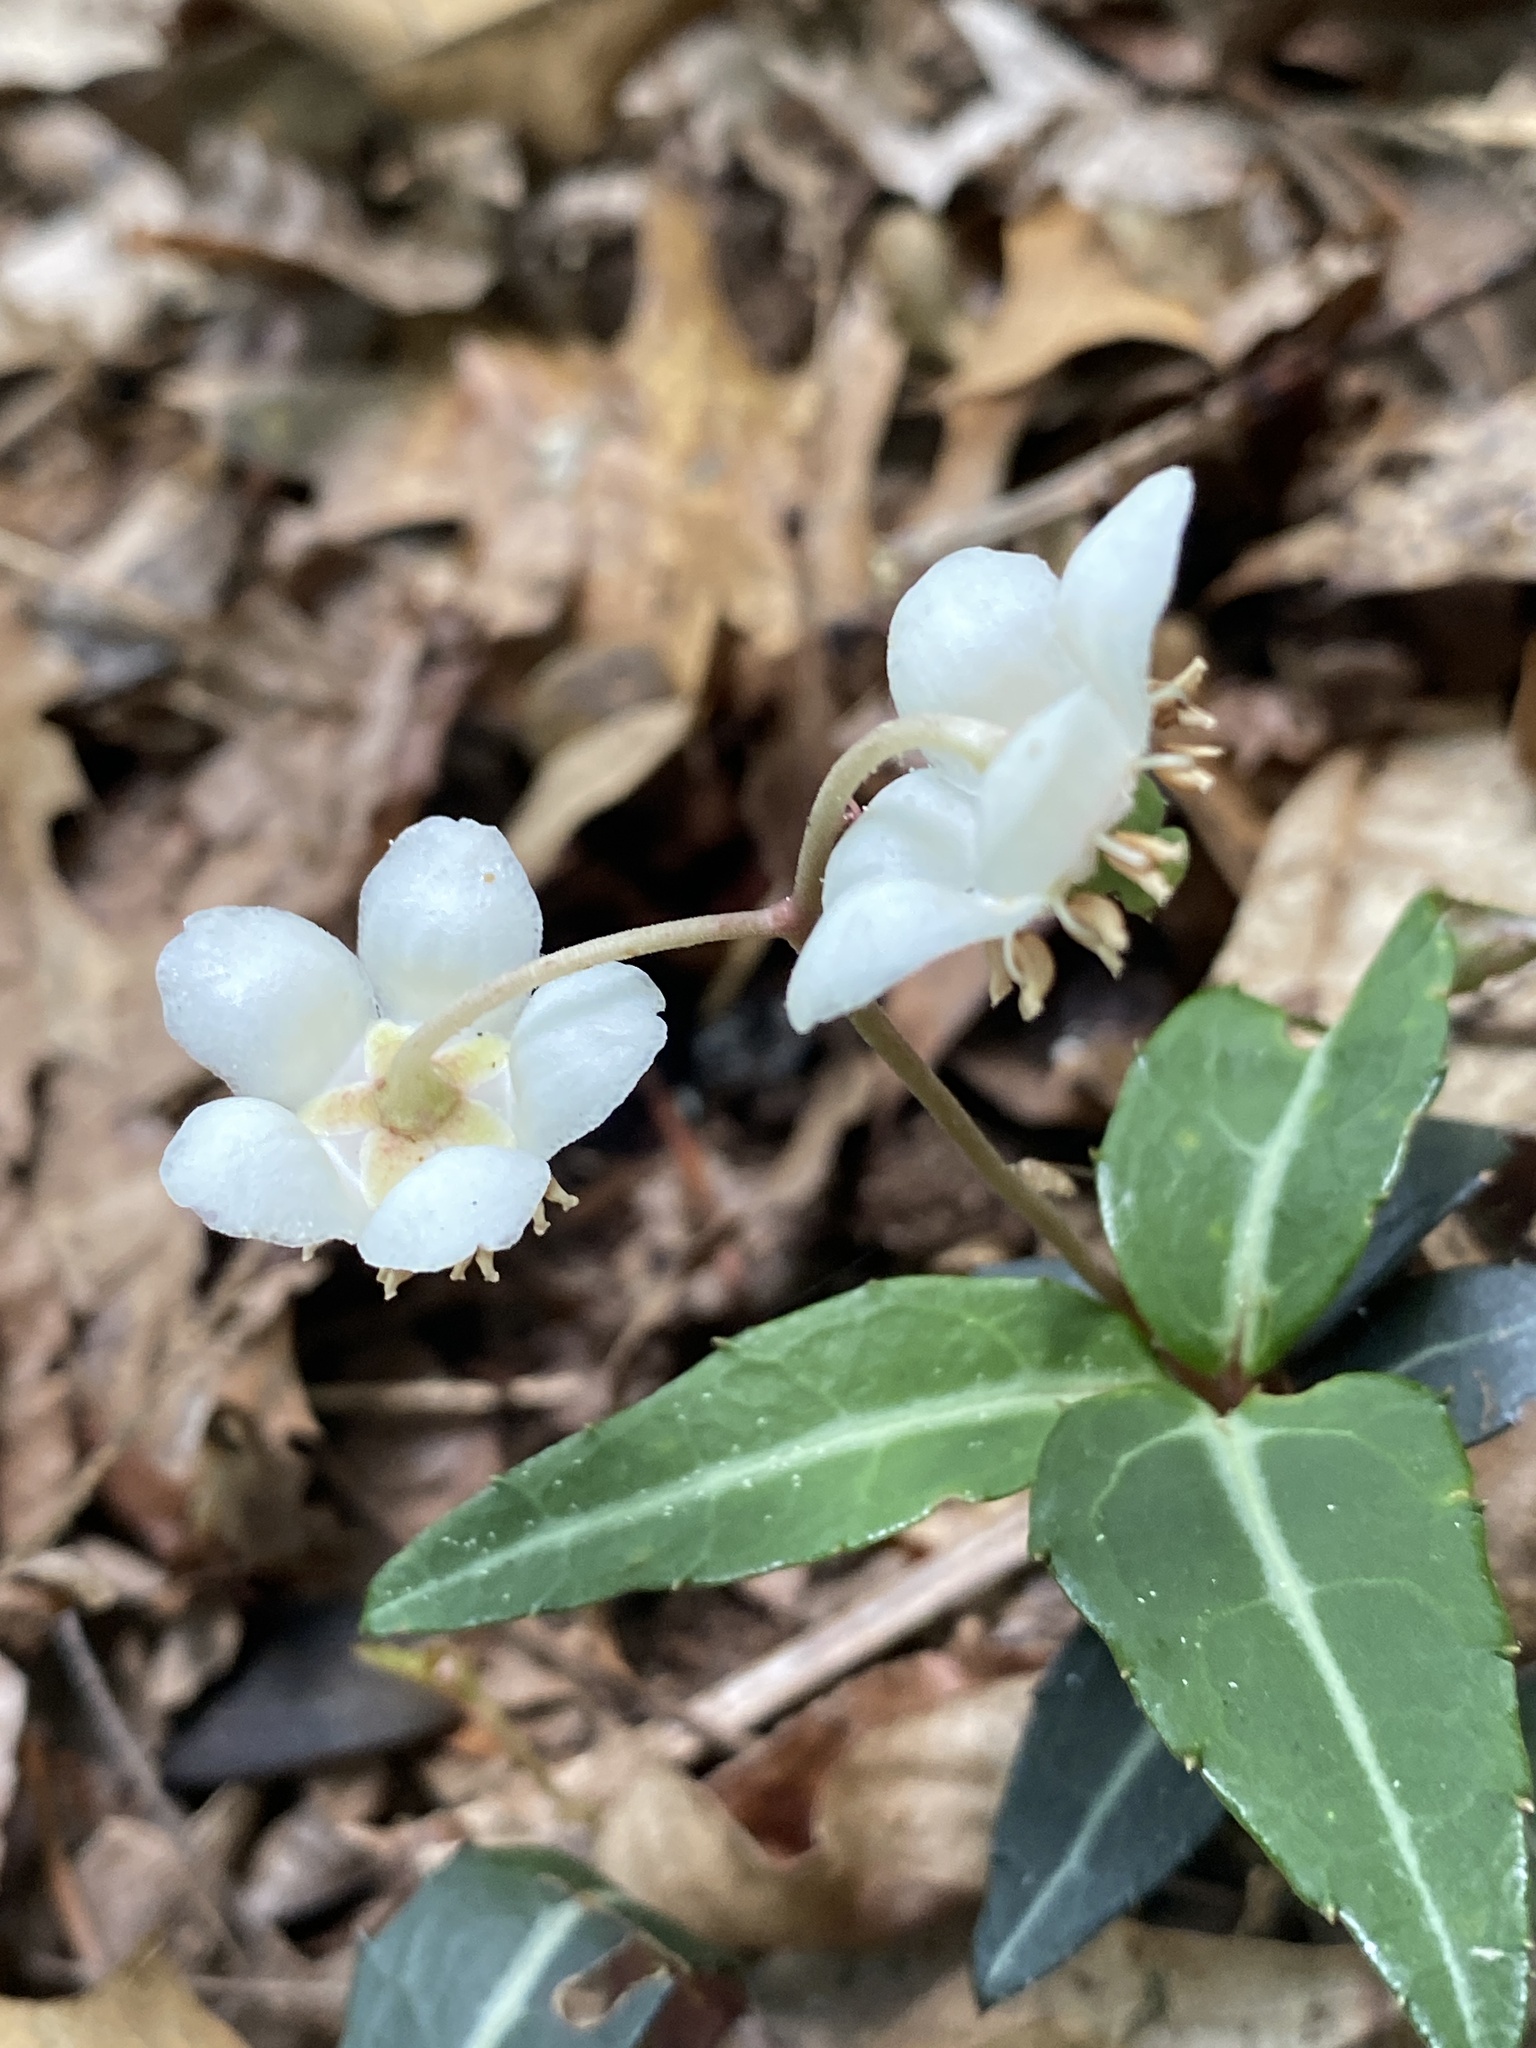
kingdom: Plantae
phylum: Tracheophyta
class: Magnoliopsida
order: Ericales
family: Ericaceae
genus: Chimaphila
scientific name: Chimaphila maculata
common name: Spotted pipsissewa
